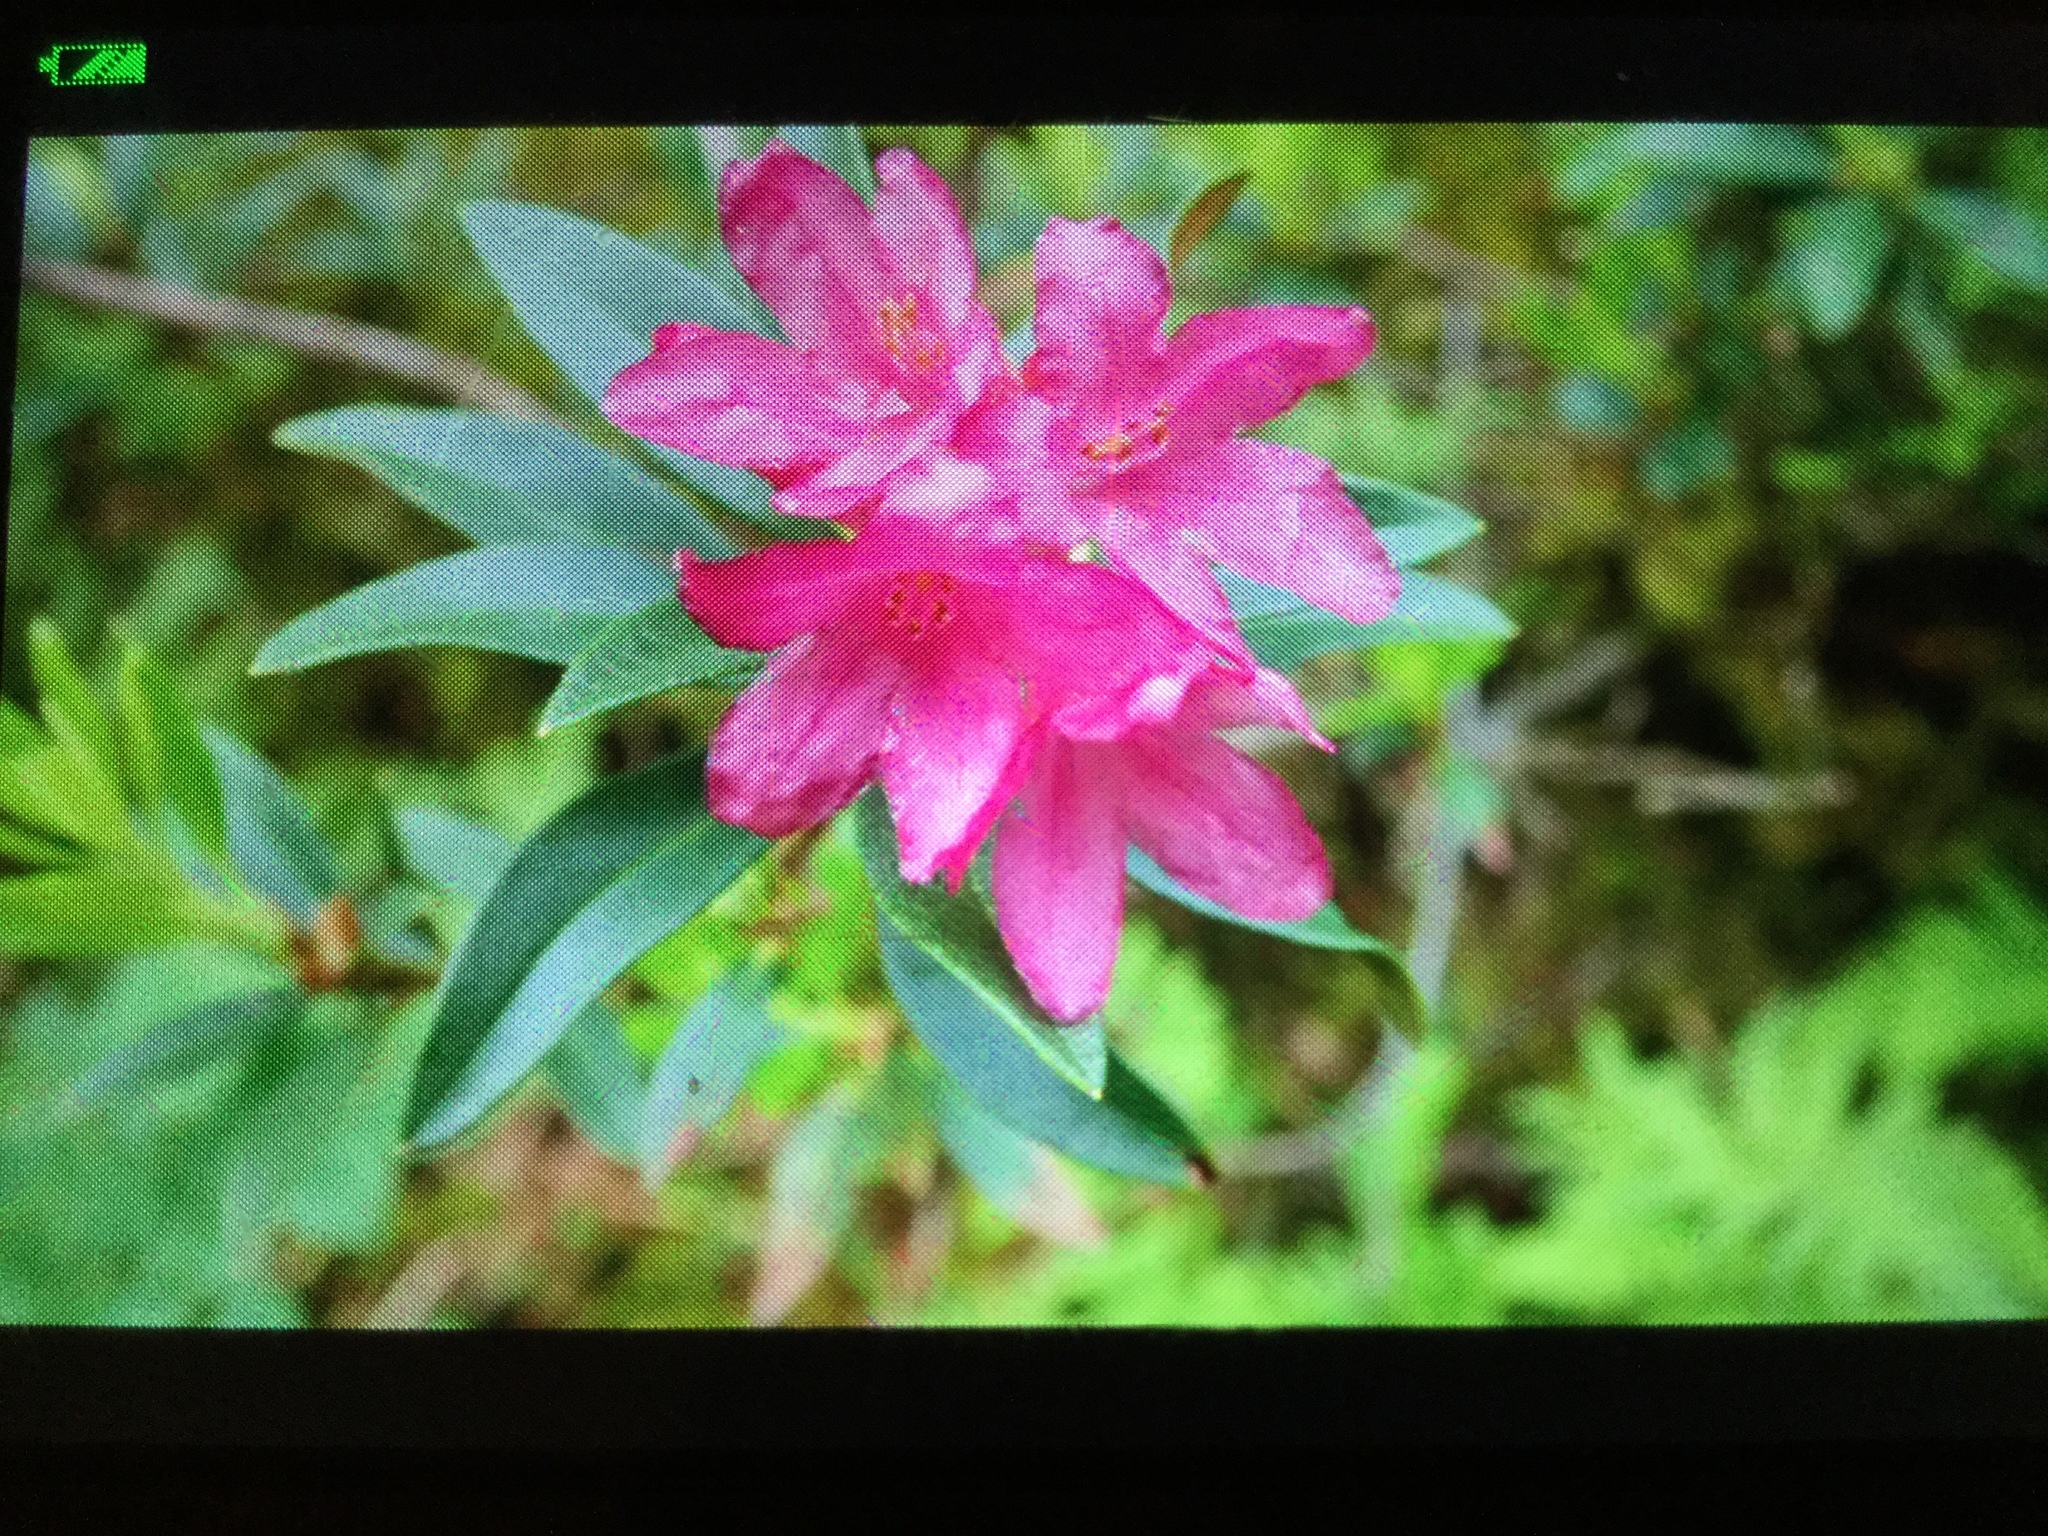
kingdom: Plantae
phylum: Tracheophyta
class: Magnoliopsida
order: Ericales
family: Ericaceae
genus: Rhododendron
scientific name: Rhododendron ferrugineum
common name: Alpenrose
